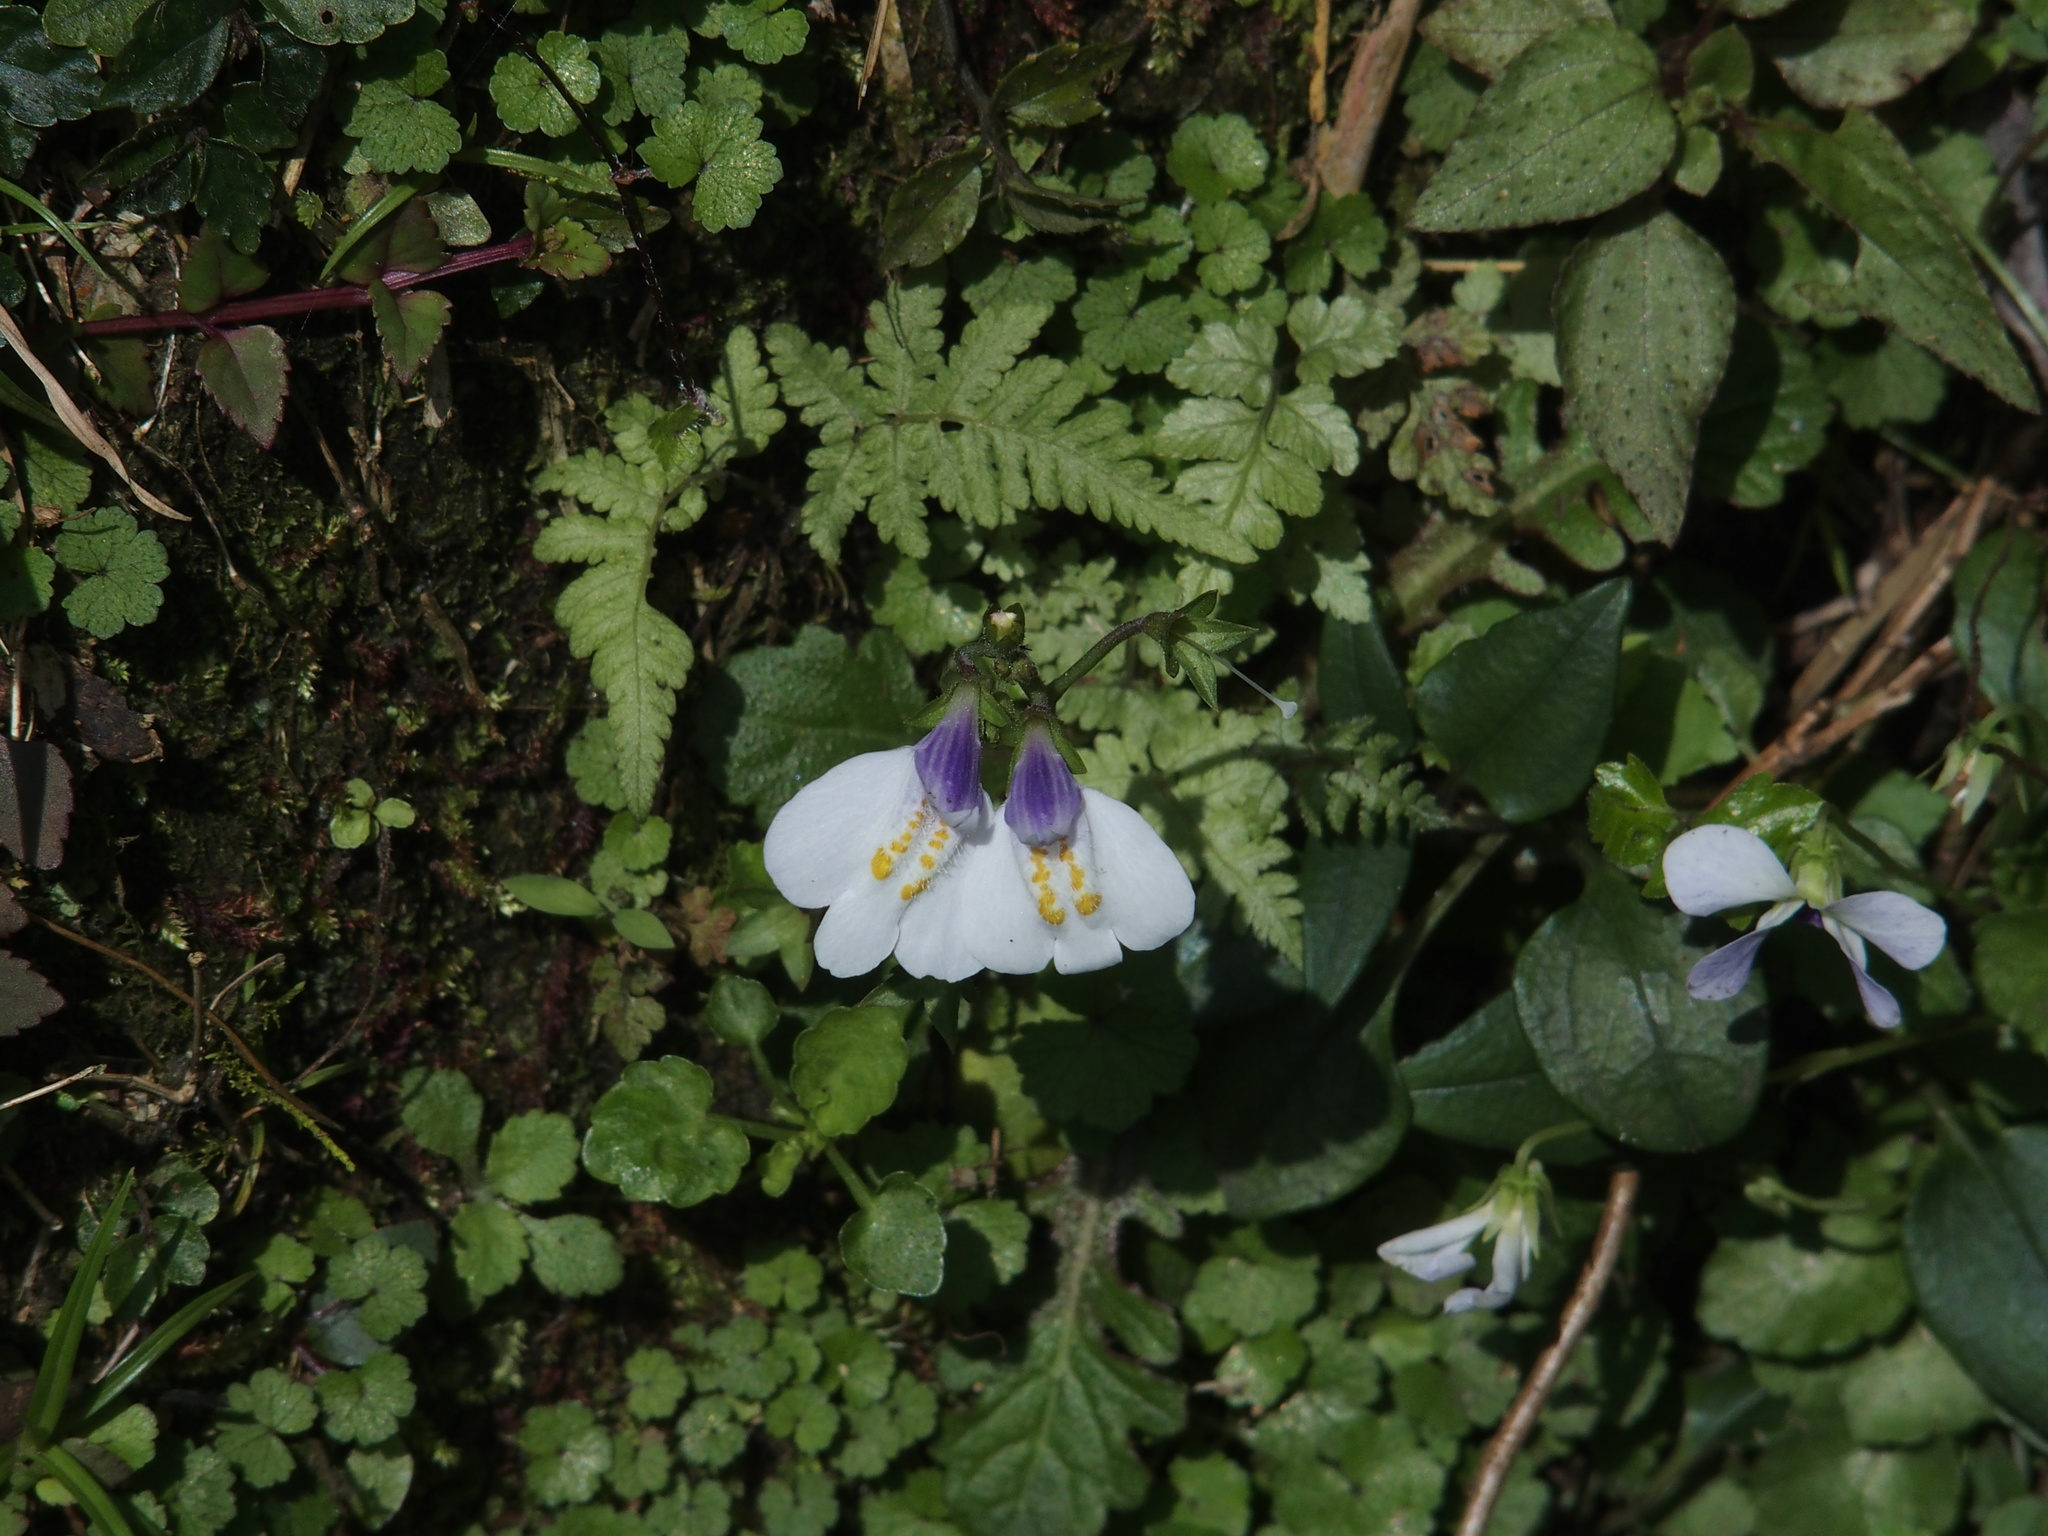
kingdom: Plantae
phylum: Tracheophyta
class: Magnoliopsida
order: Lamiales
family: Mazaceae
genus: Mazus
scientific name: Mazus fauriei
